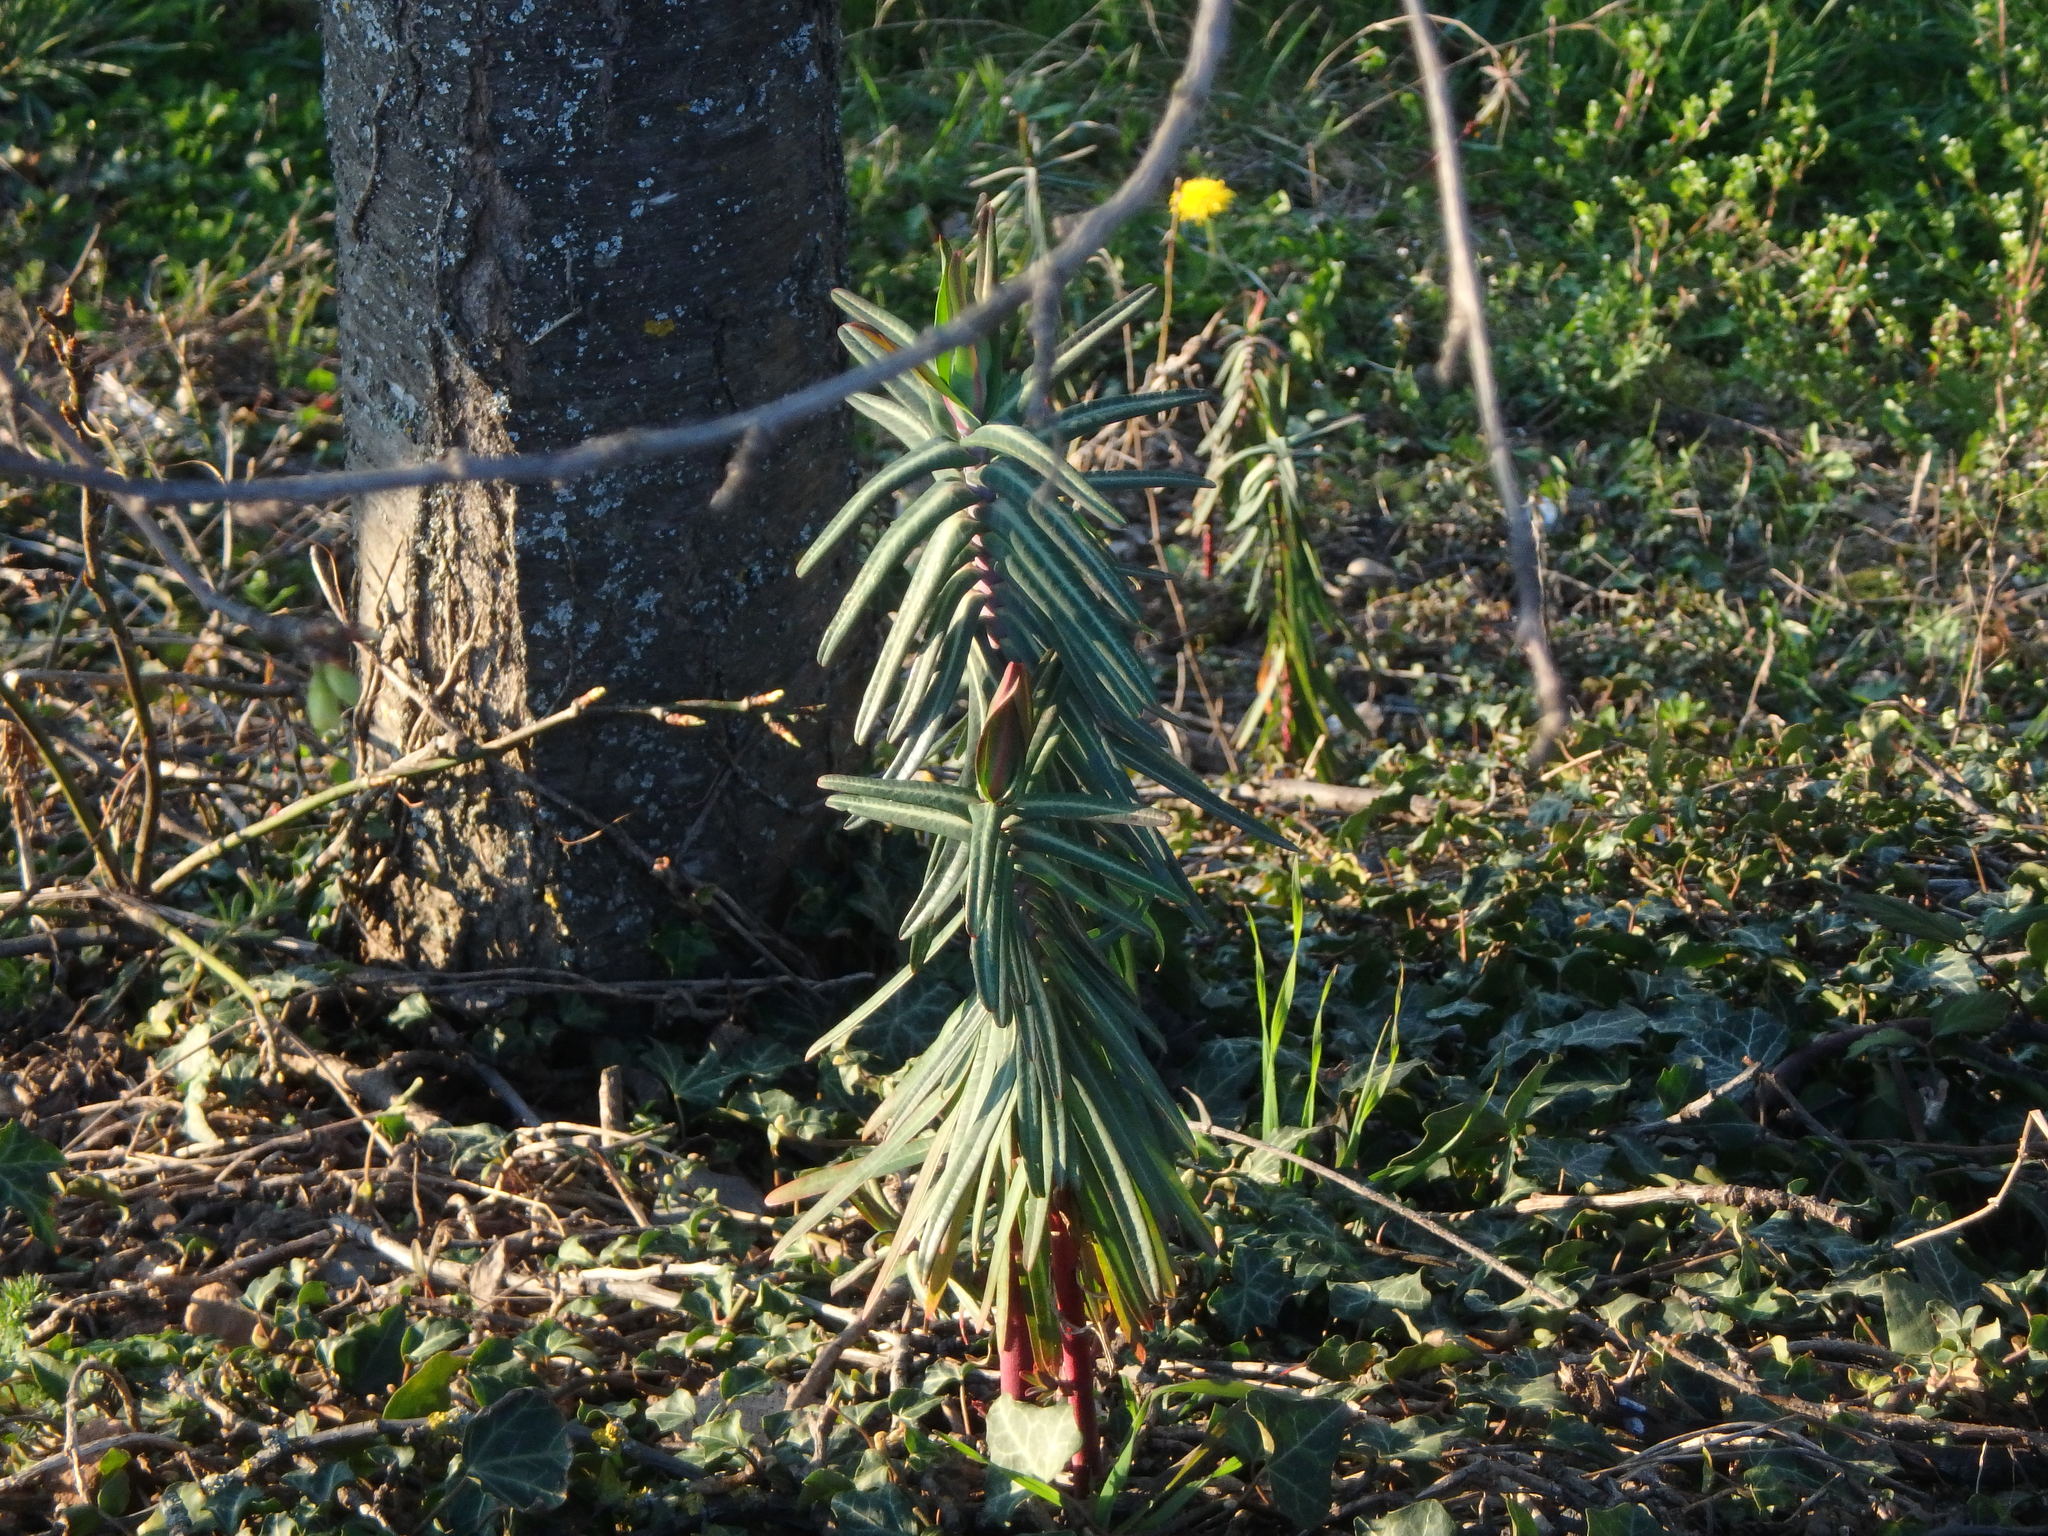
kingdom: Plantae
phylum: Tracheophyta
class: Magnoliopsida
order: Malpighiales
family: Euphorbiaceae
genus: Euphorbia
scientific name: Euphorbia lathyris
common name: Caper spurge
